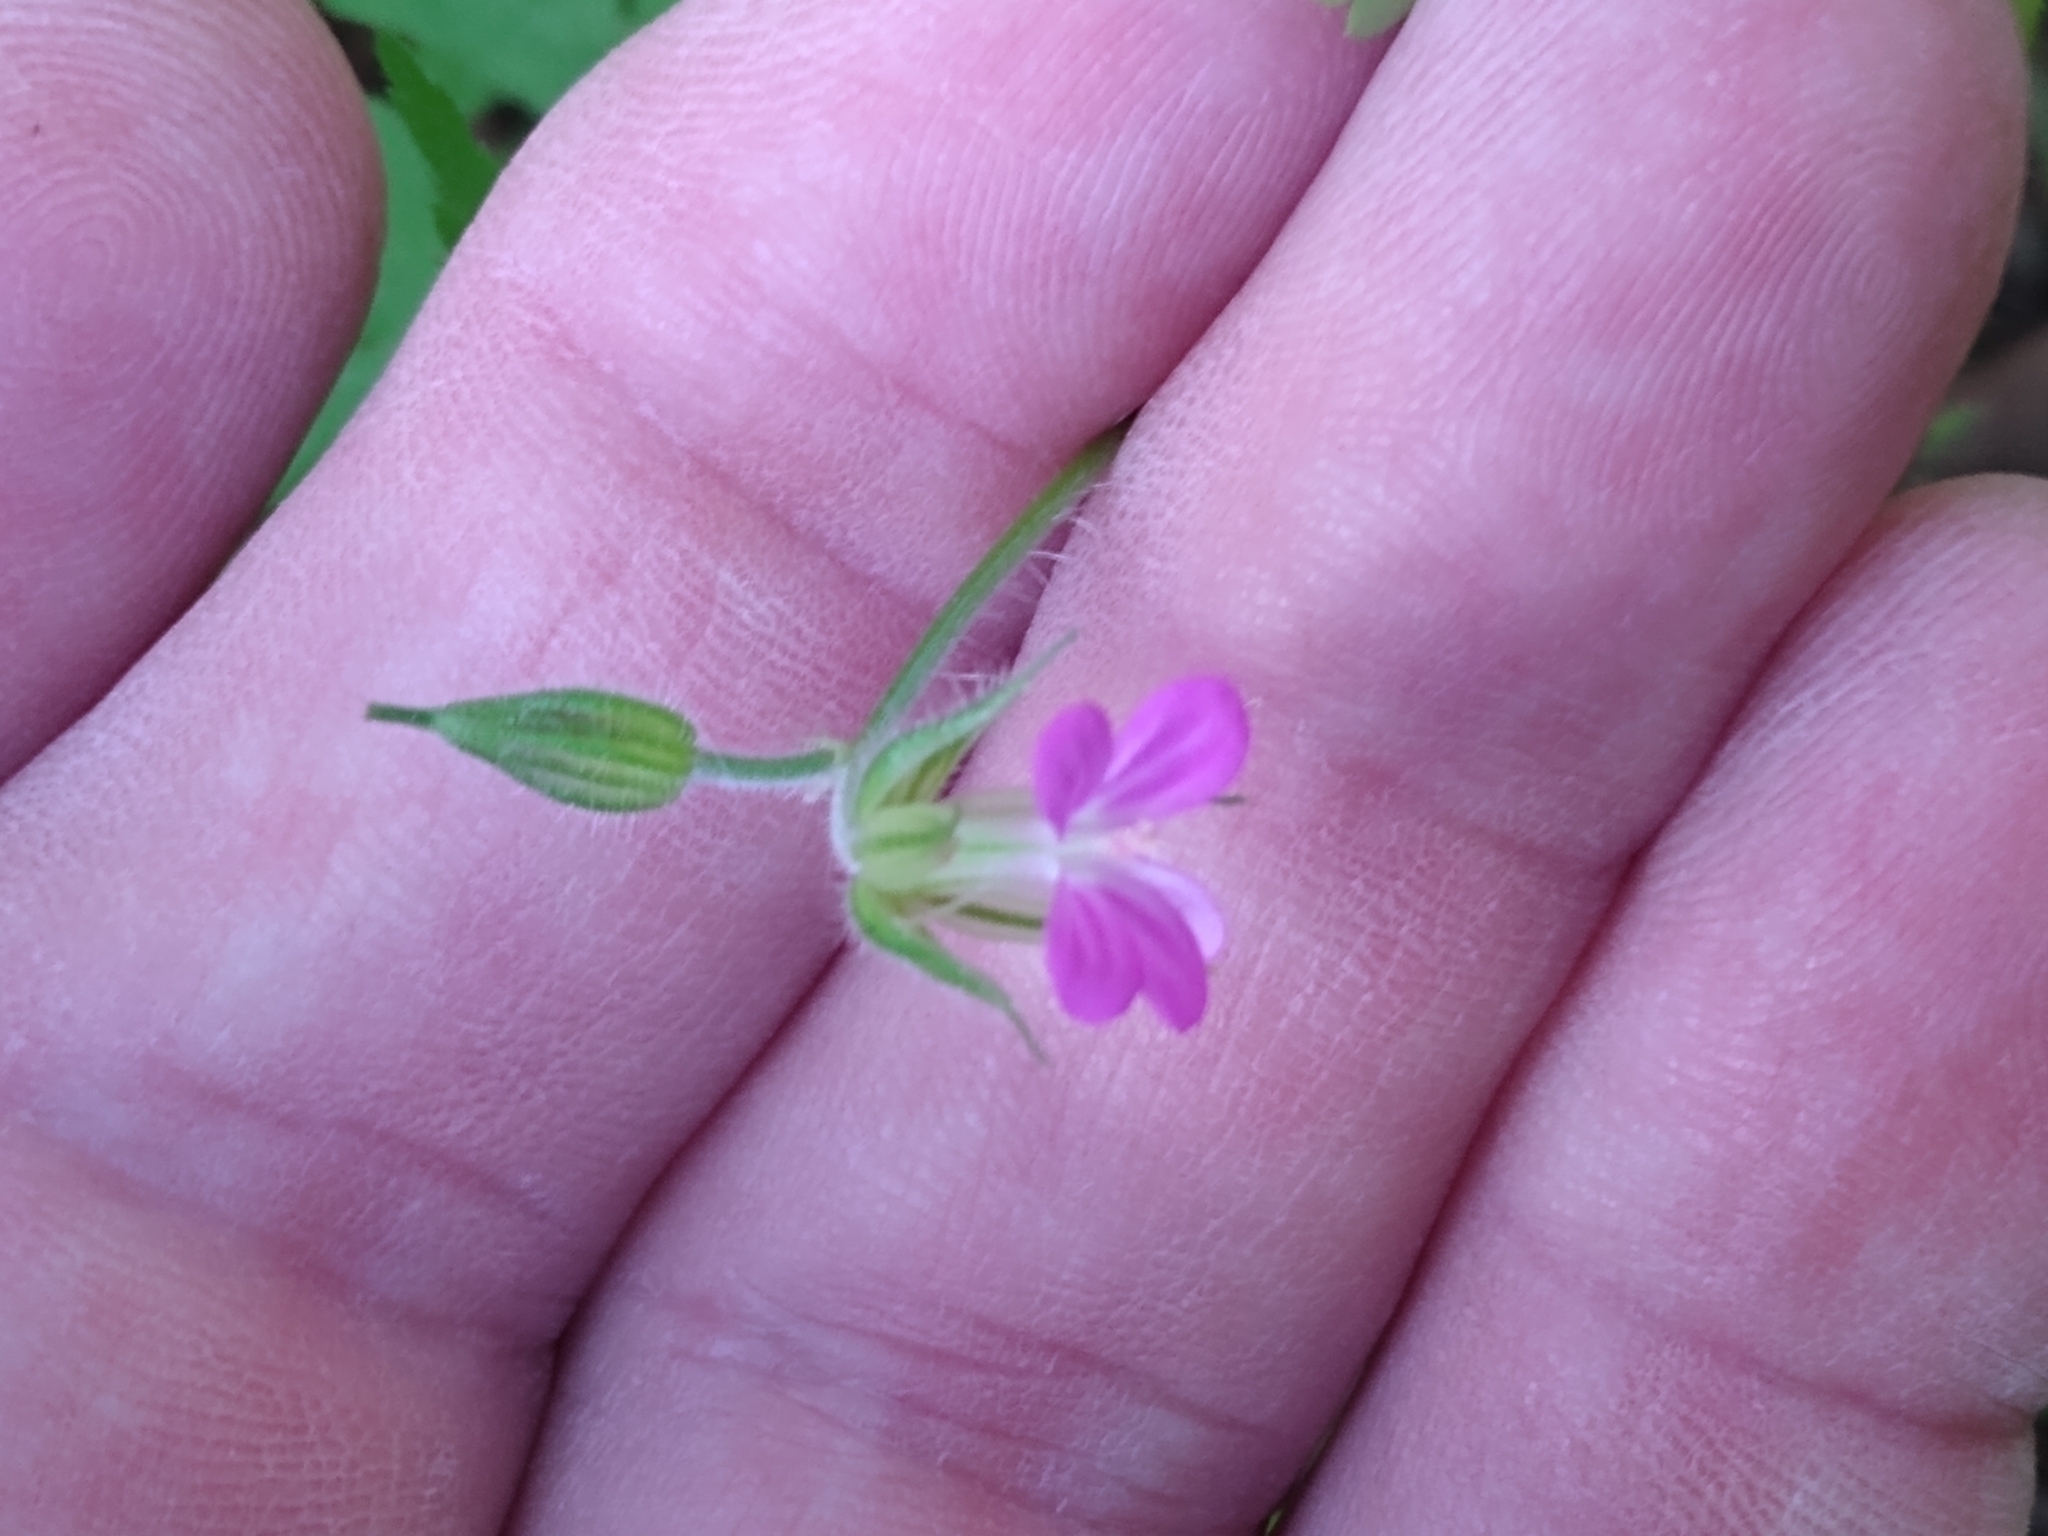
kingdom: Plantae
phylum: Tracheophyta
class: Magnoliopsida
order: Geraniales
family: Geraniaceae
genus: Geranium
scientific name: Geranium purpureum
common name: Little-robin
